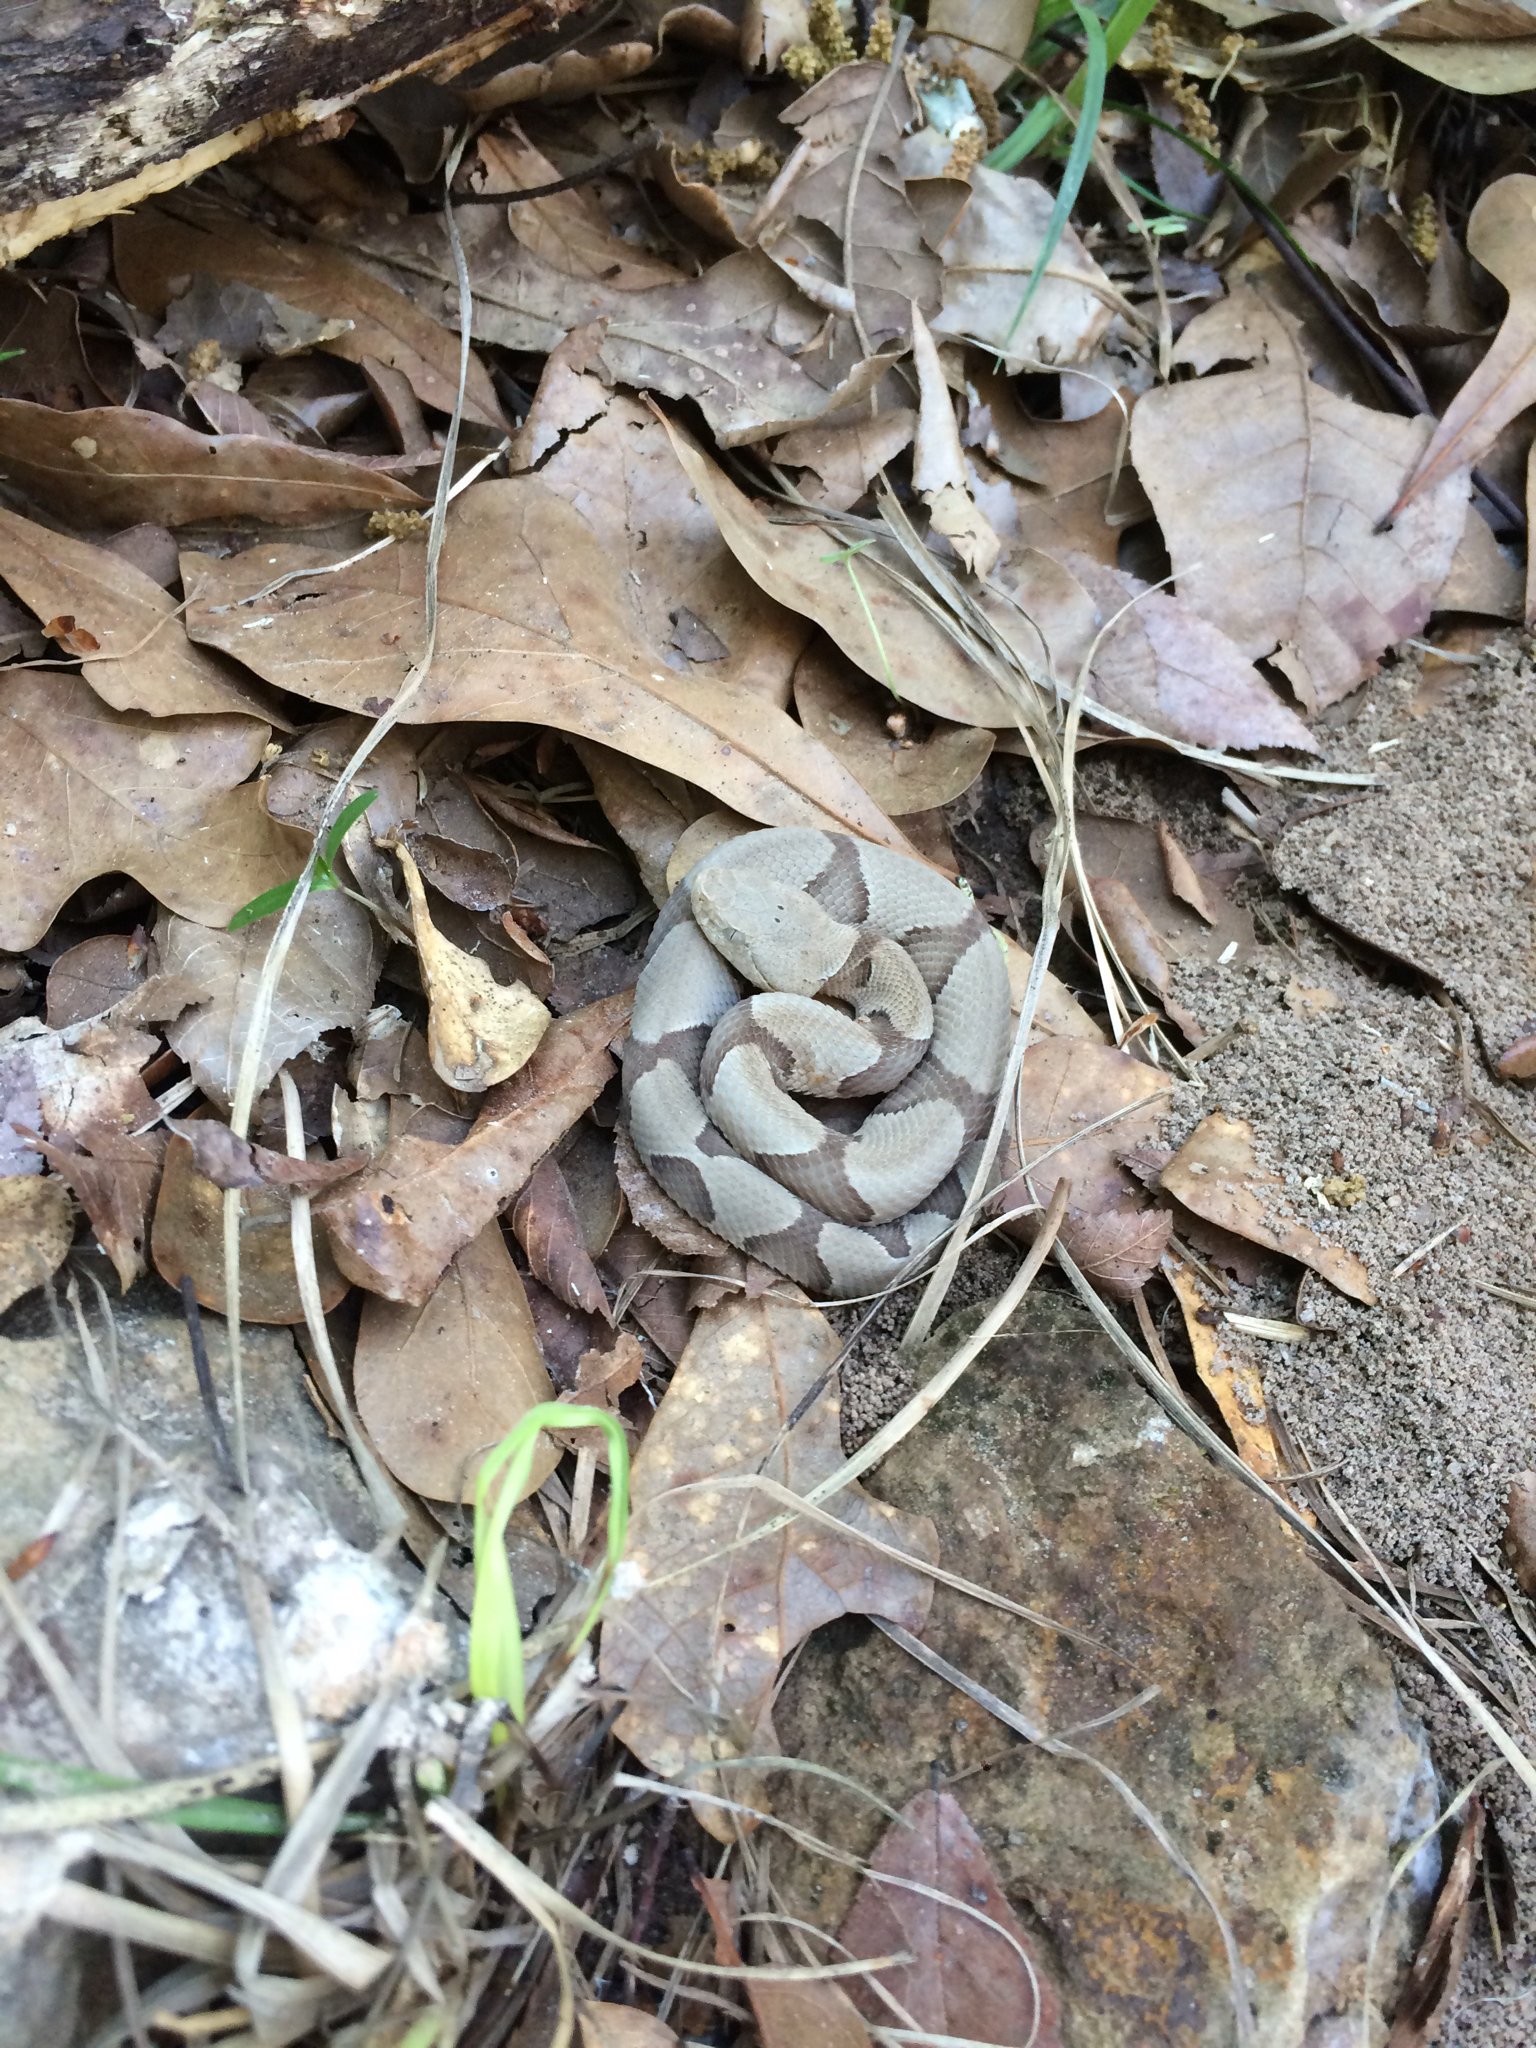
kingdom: Animalia
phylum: Chordata
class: Squamata
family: Viperidae
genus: Agkistrodon
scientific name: Agkistrodon contortrix
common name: Northern copperhead
